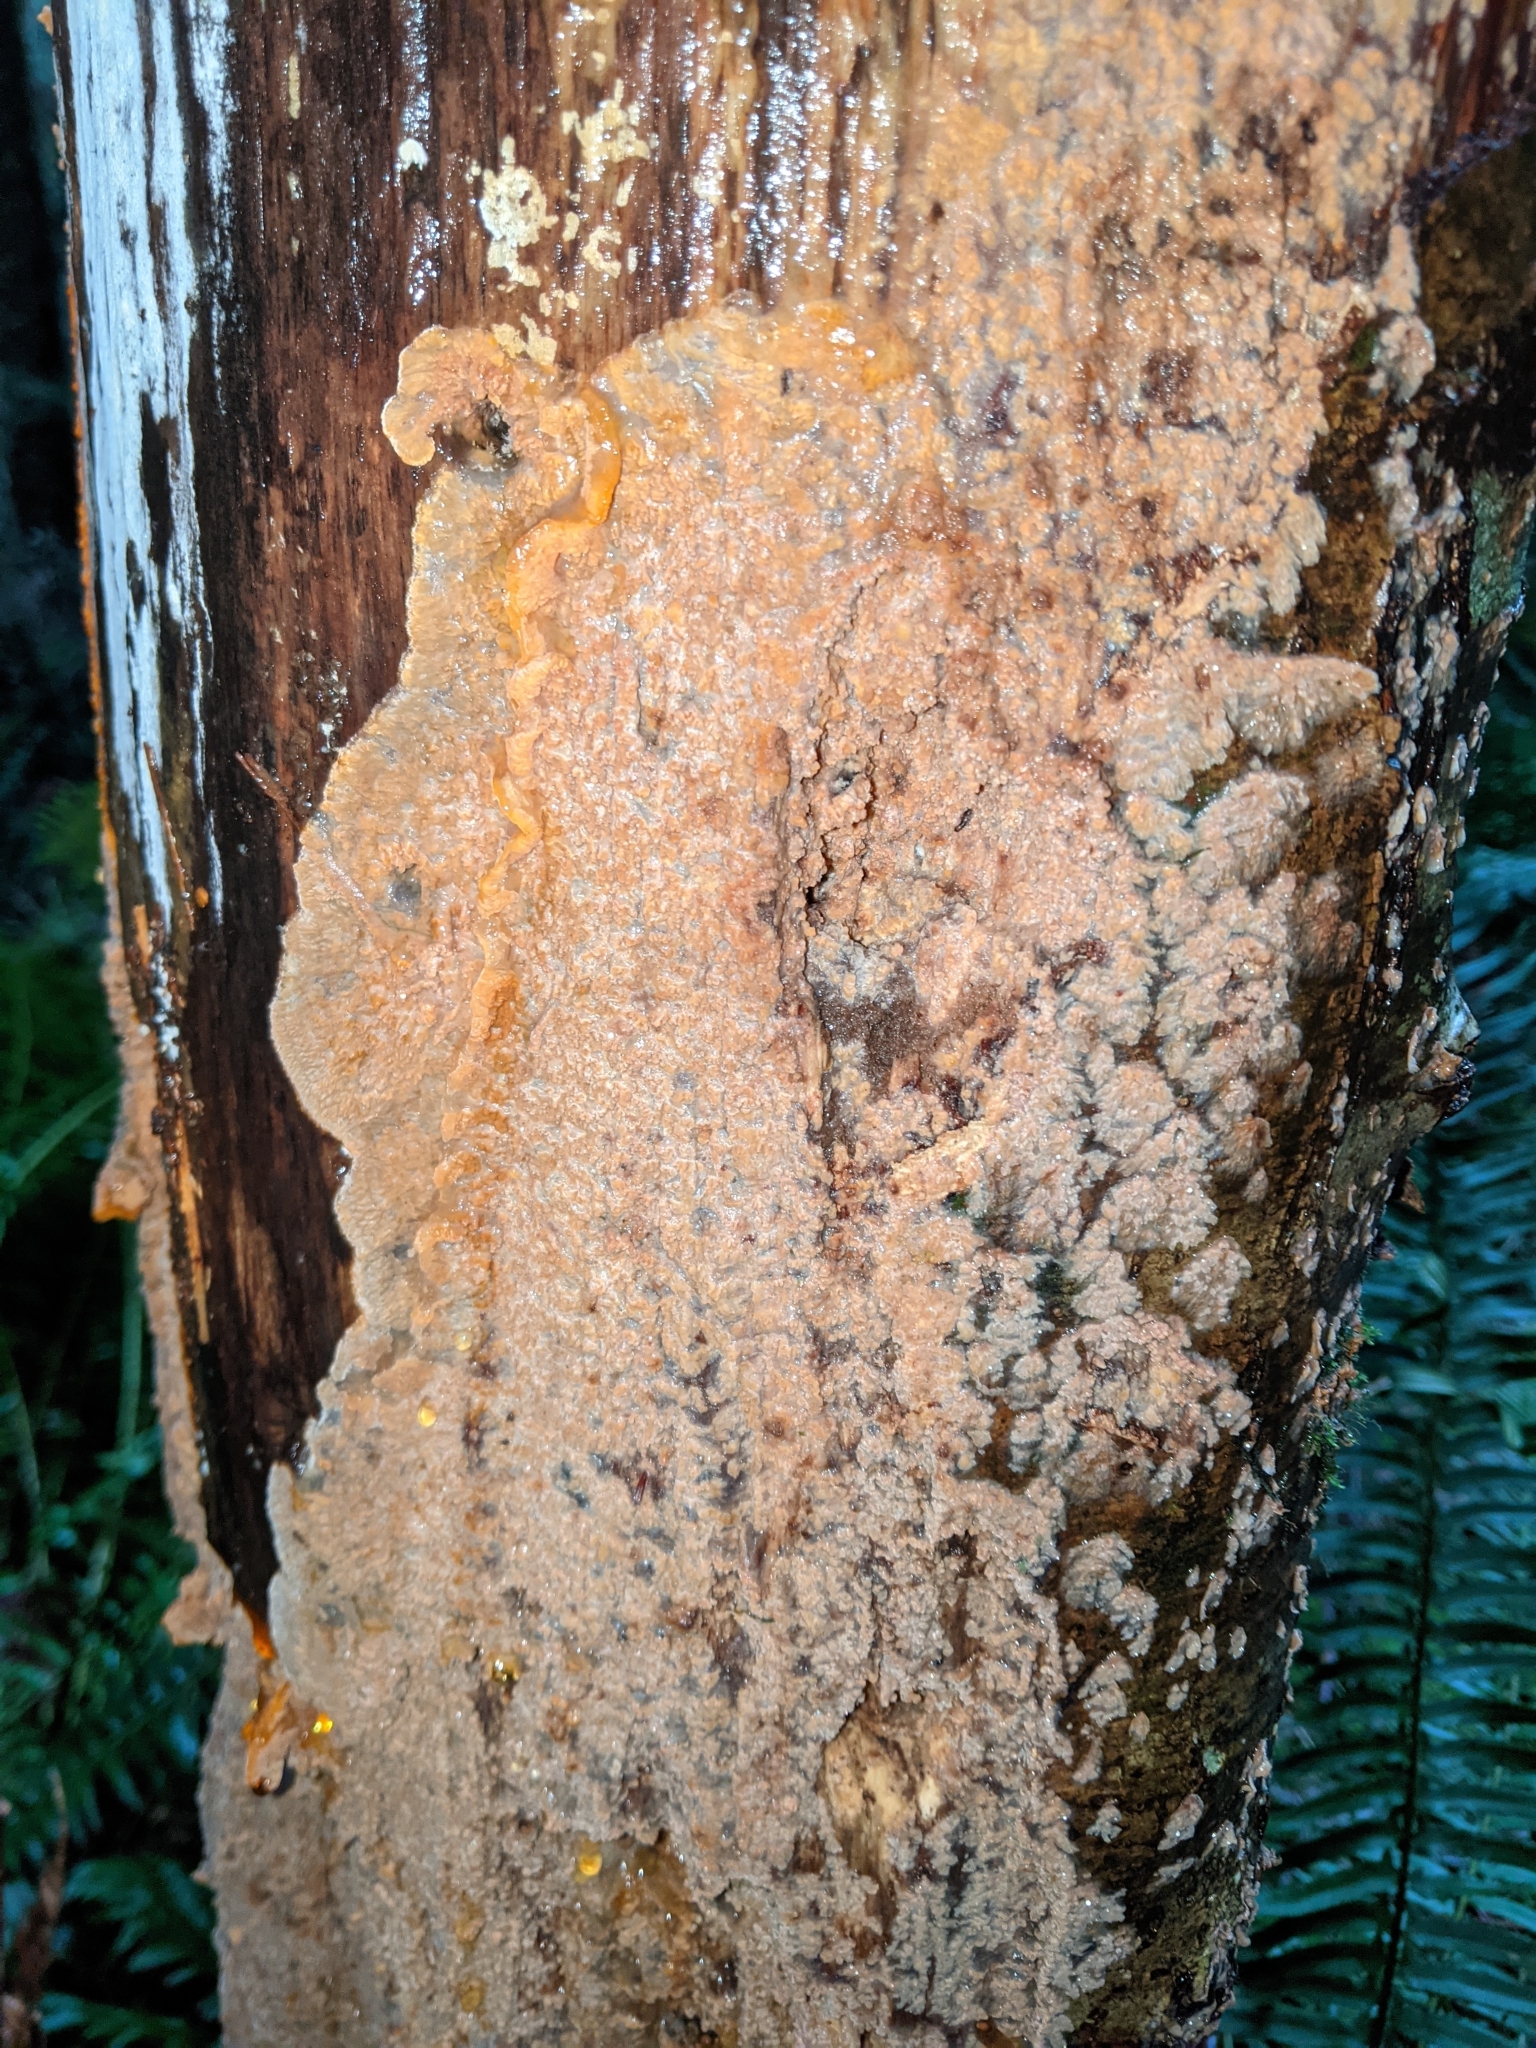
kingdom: Fungi
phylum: Basidiomycota
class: Agaricomycetes
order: Polyporales
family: Meruliaceae
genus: Phlebia
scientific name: Phlebia radiata
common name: Wrinkled crust
